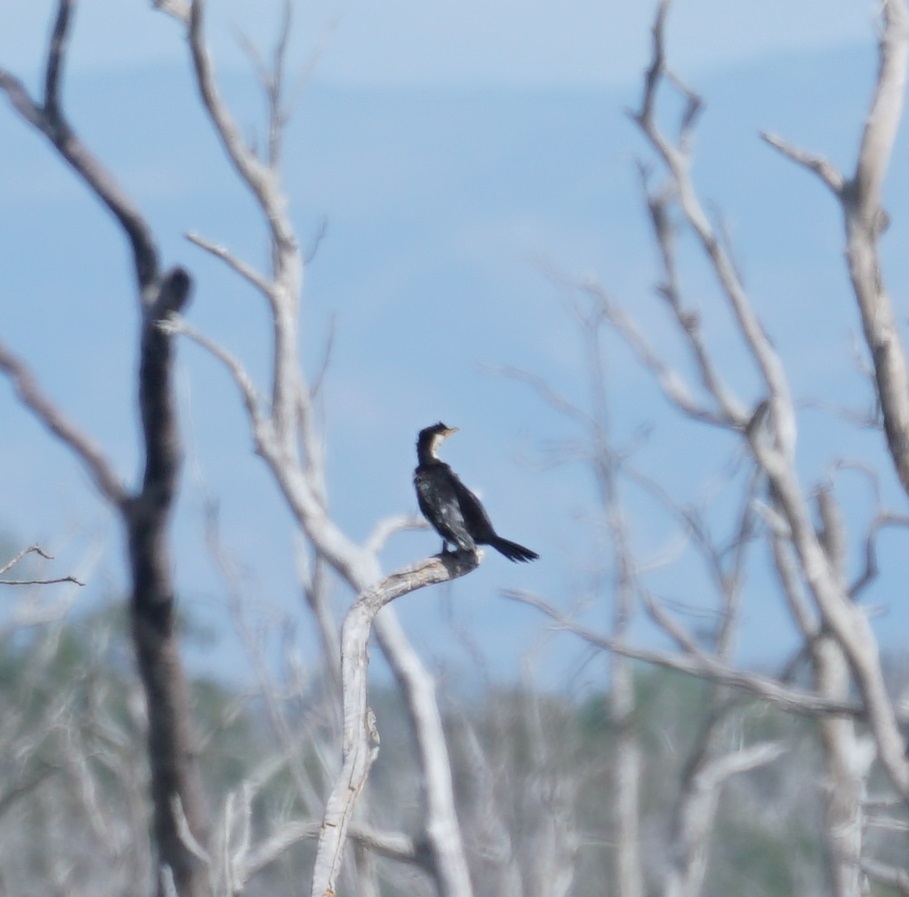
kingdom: Animalia
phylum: Chordata
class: Aves
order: Suliformes
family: Phalacrocoracidae
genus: Microcarbo
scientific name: Microcarbo melanoleucos
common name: Little pied cormorant
